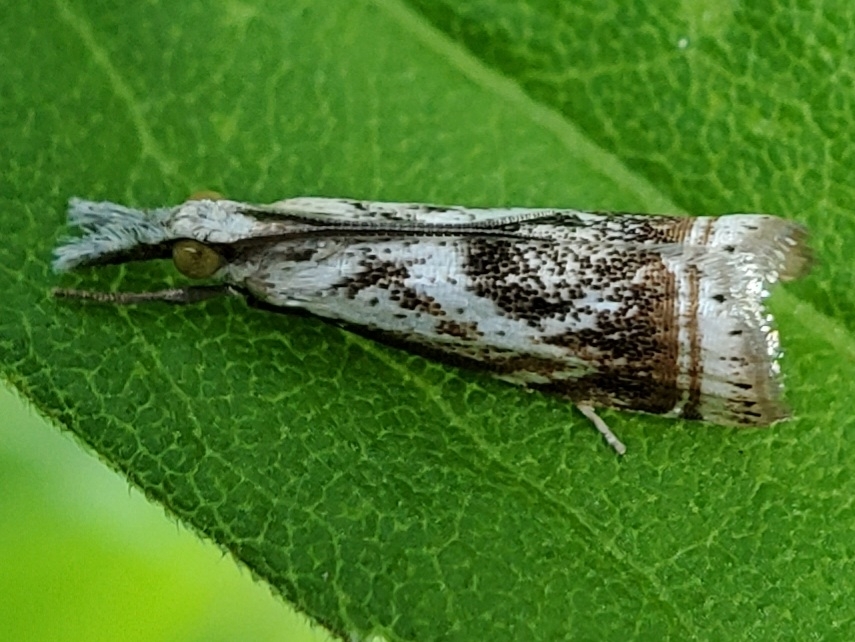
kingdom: Animalia
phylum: Arthropoda
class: Insecta
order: Lepidoptera
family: Crambidae
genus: Microcrambus
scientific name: Microcrambus elegans
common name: Elegant grass-veneer
